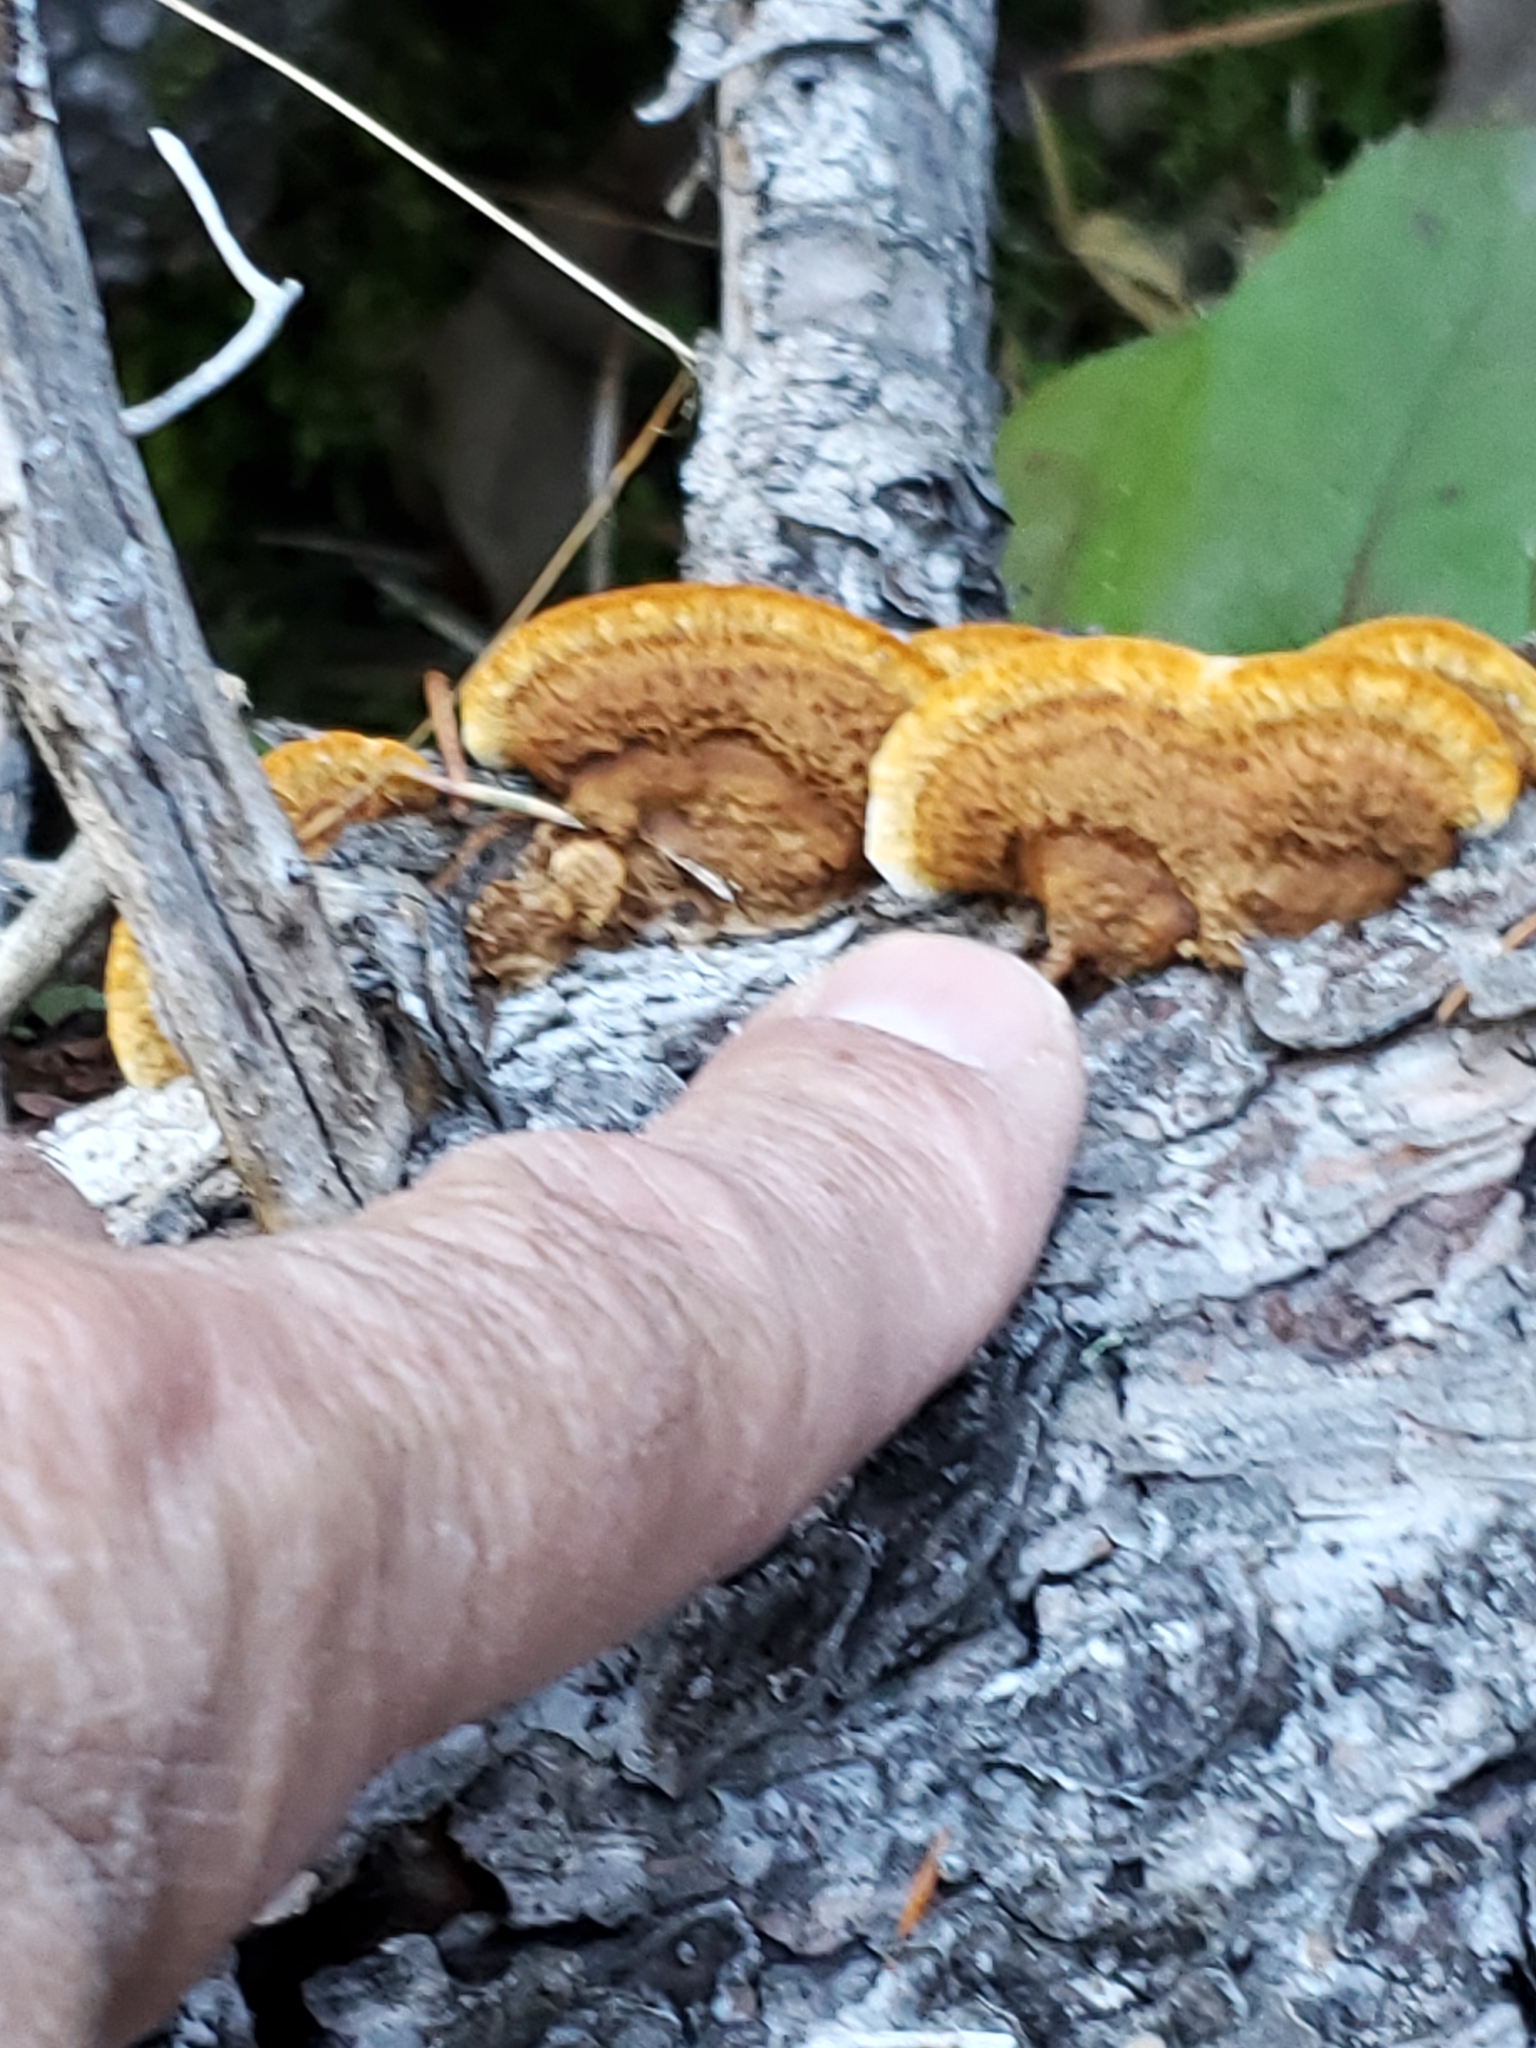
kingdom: Fungi
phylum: Basidiomycota
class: Agaricomycetes
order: Gloeophyllales
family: Gloeophyllaceae
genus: Gloeophyllum
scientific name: Gloeophyllum sepiarium
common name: Conifer mazegill
